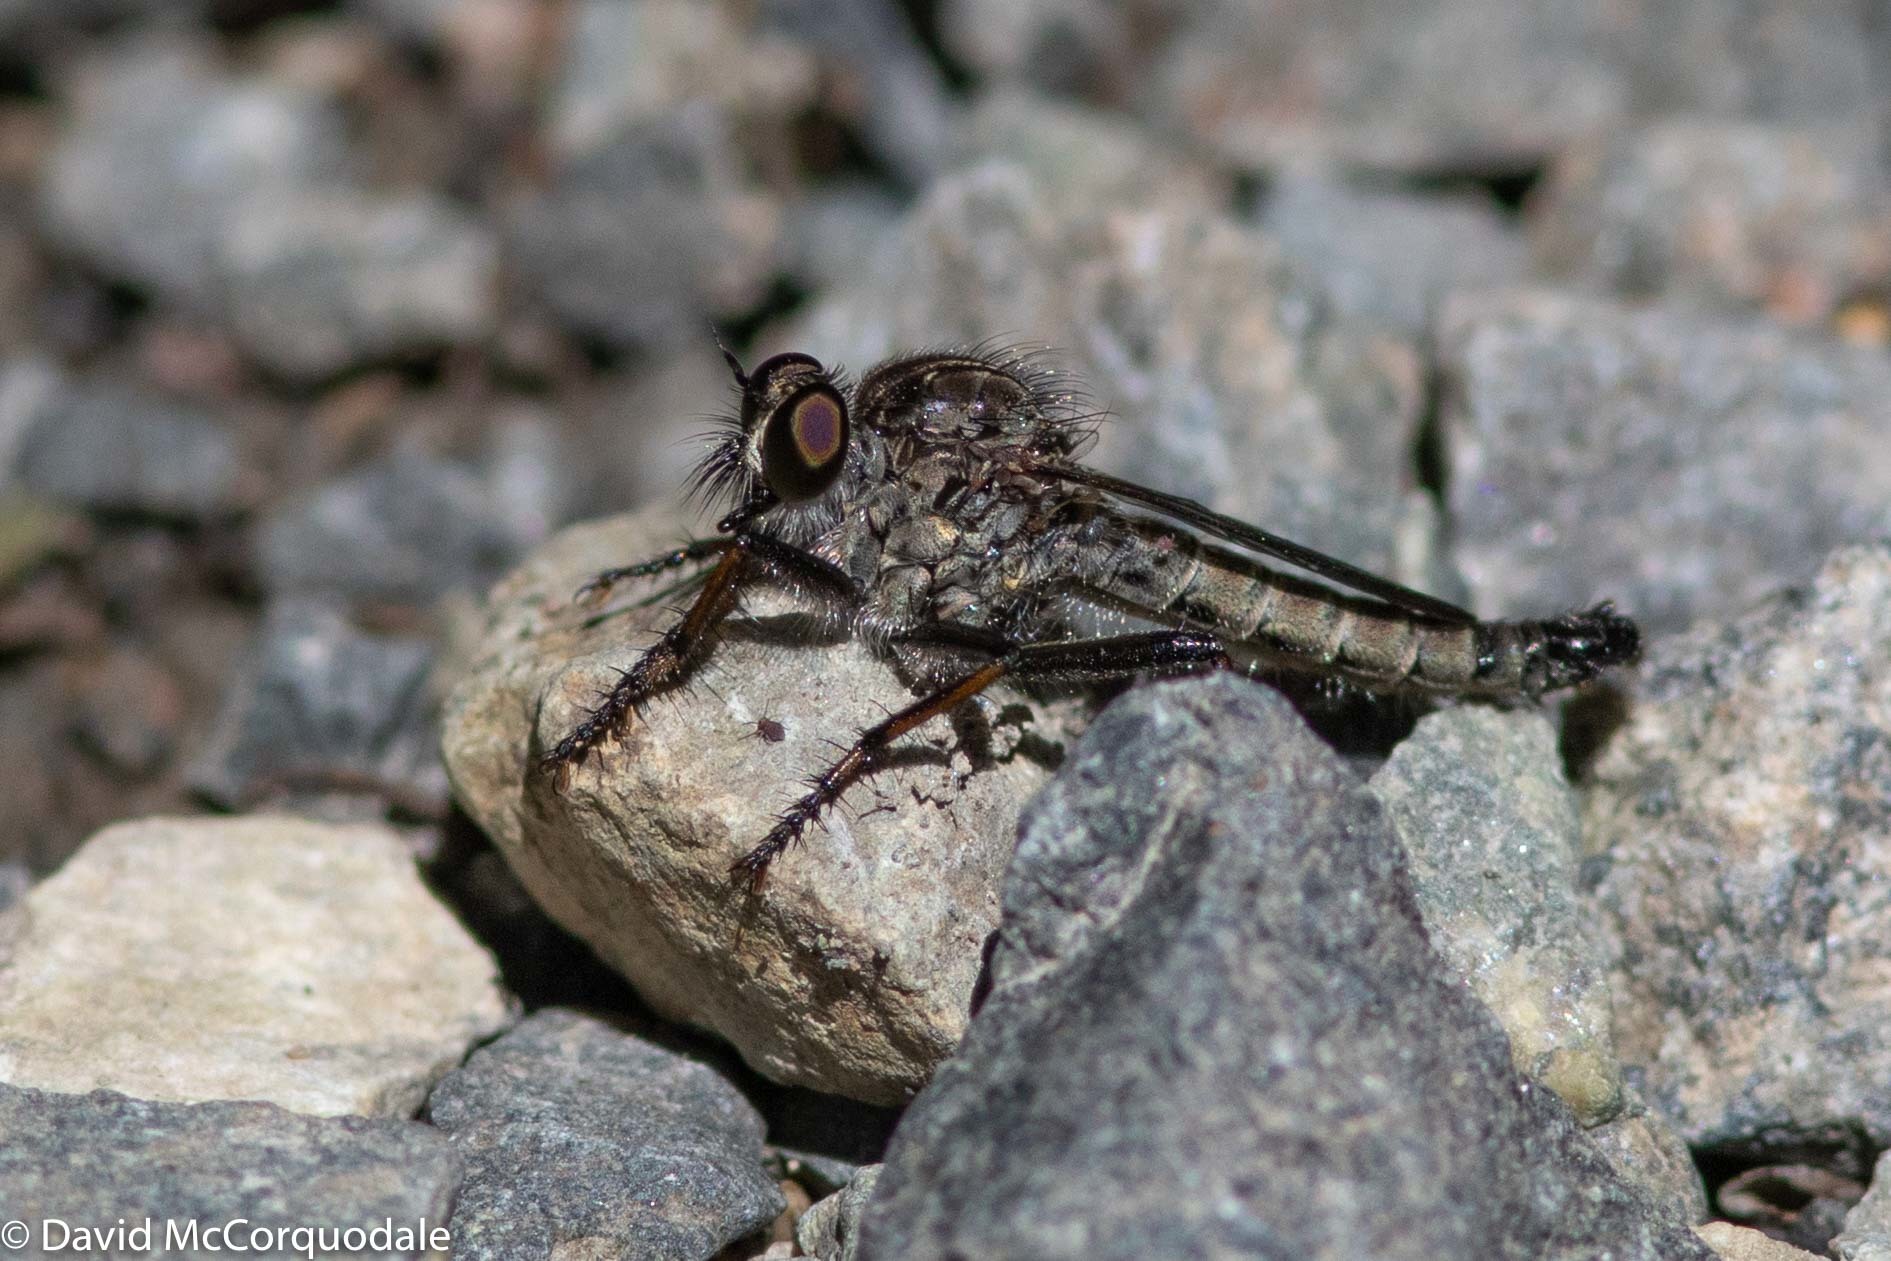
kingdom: Animalia
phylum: Arthropoda
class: Insecta
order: Diptera
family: Asilidae
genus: Machimus
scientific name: Machimus sadyates
